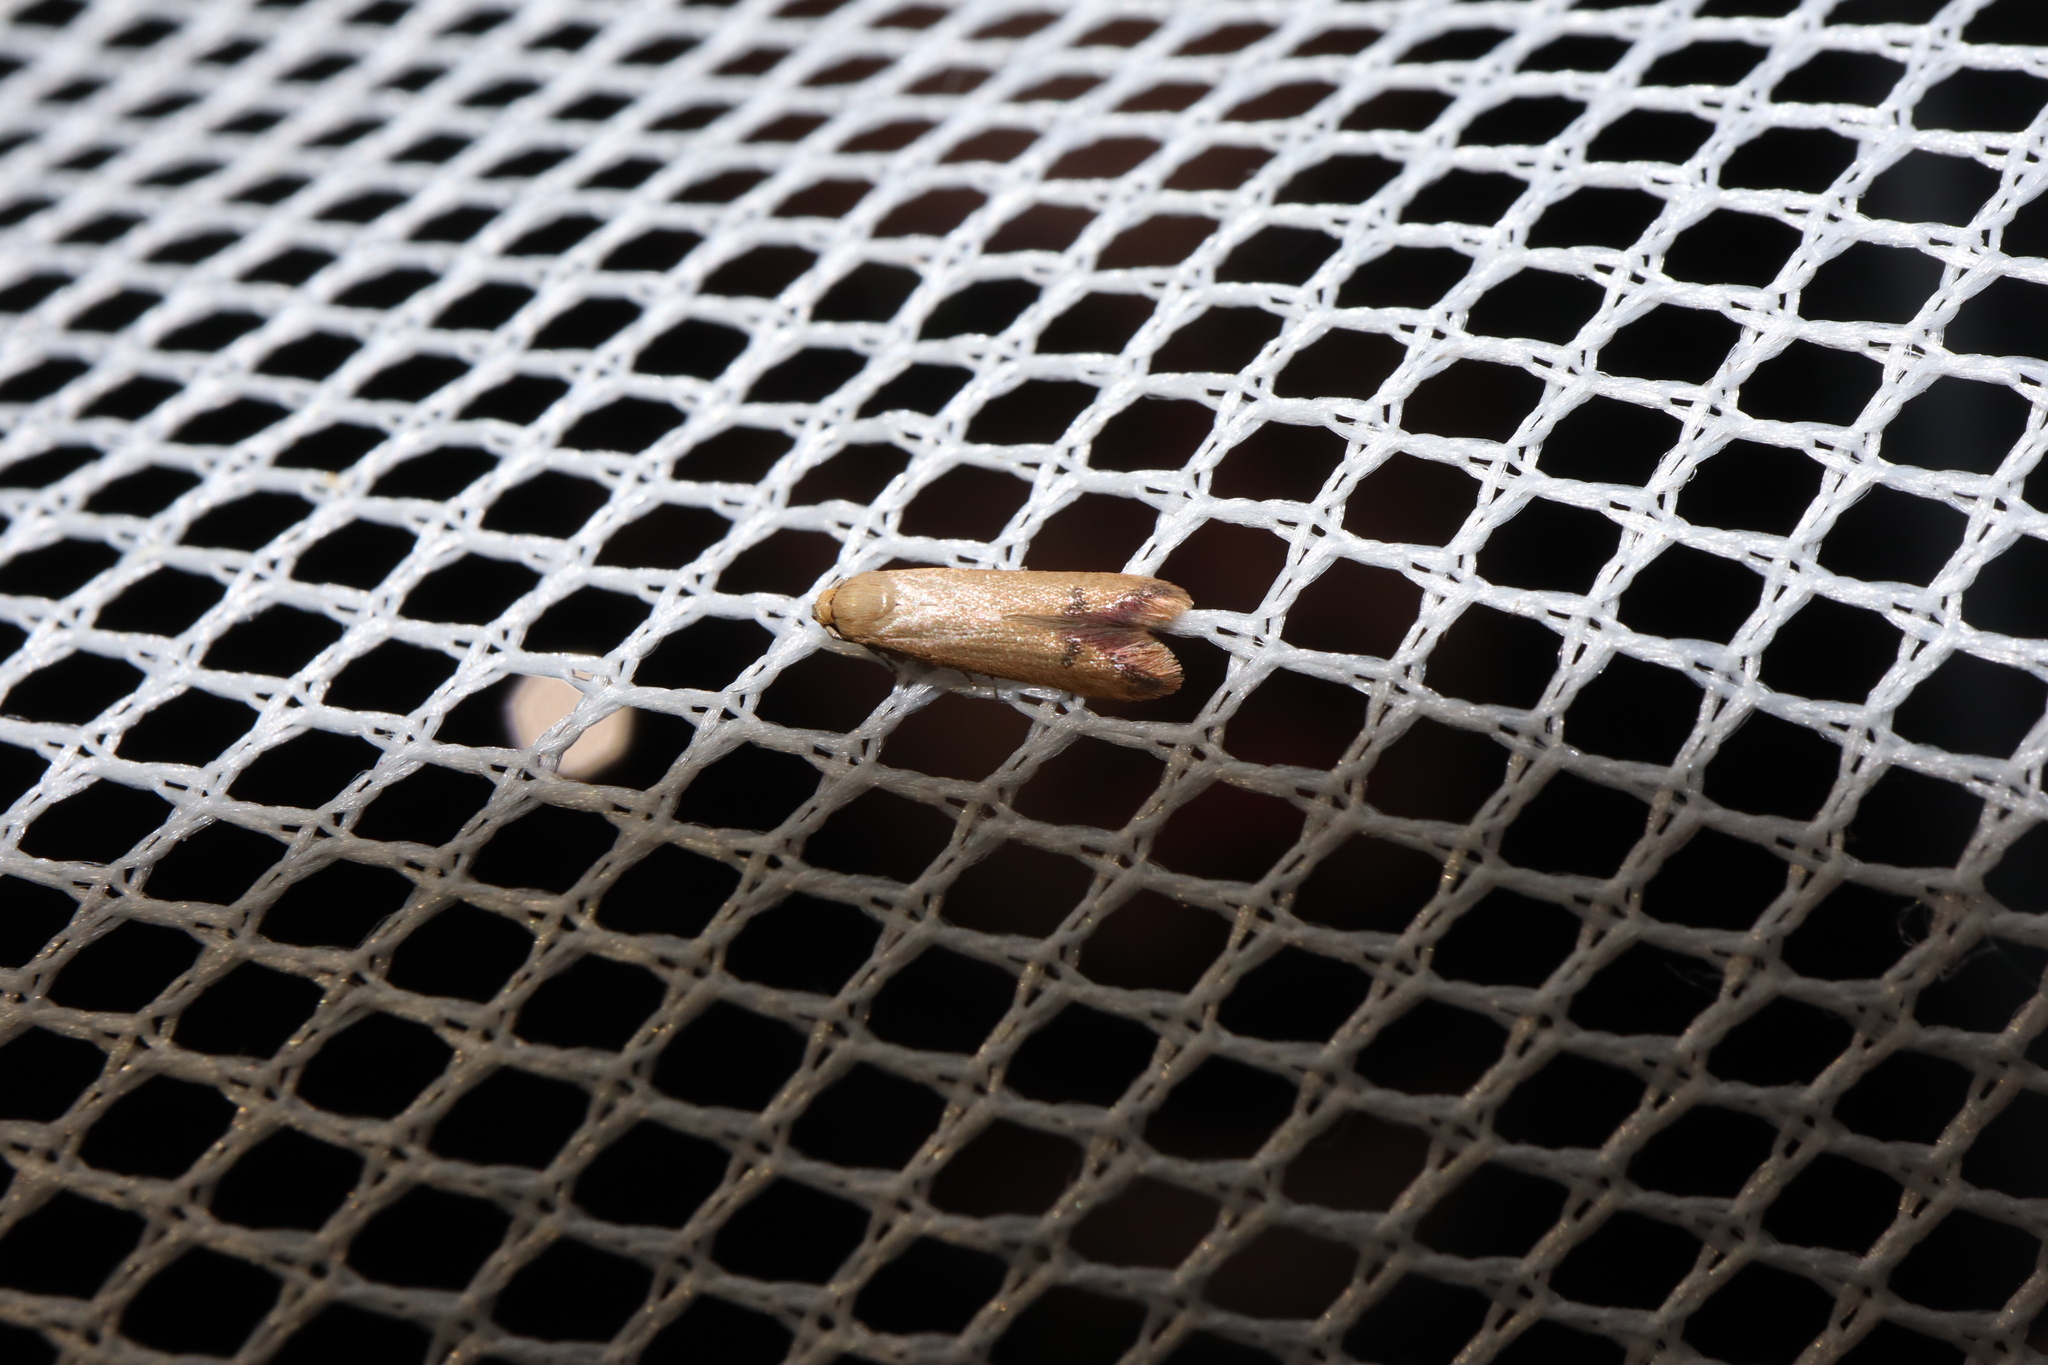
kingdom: Animalia
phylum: Arthropoda
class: Insecta
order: Lepidoptera
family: Oecophoridae
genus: Tachystola
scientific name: Tachystola hemisema
